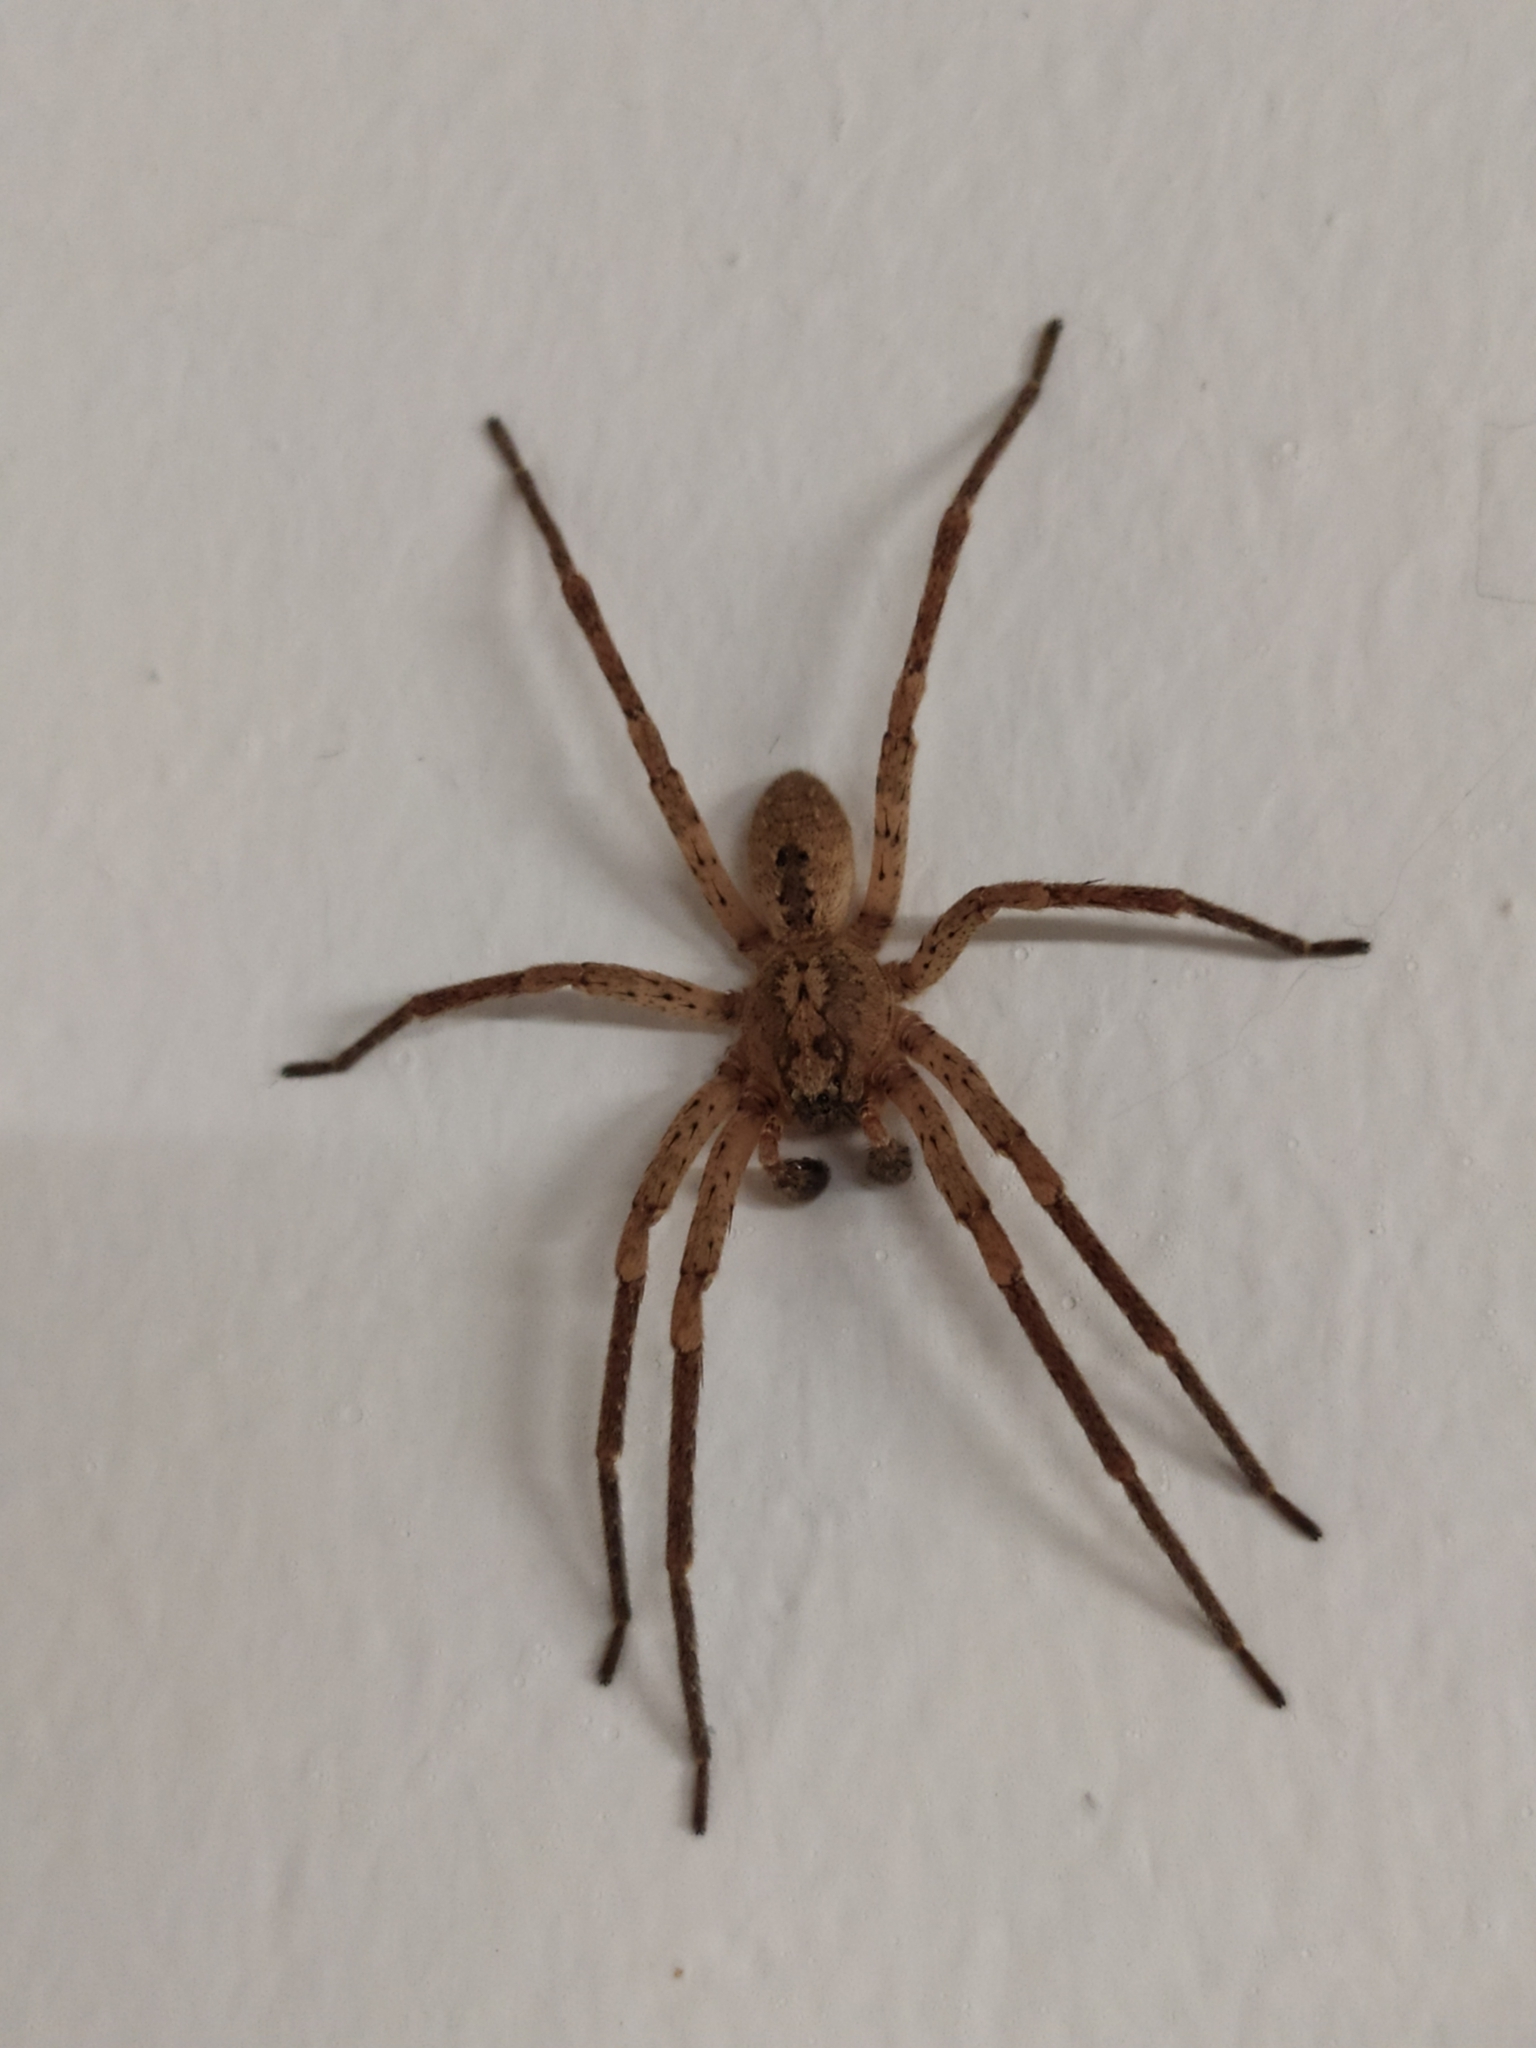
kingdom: Animalia
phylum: Arthropoda
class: Arachnida
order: Araneae
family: Zoropsidae
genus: Zoropsis
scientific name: Zoropsis spinimana
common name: Zoropsid spider
